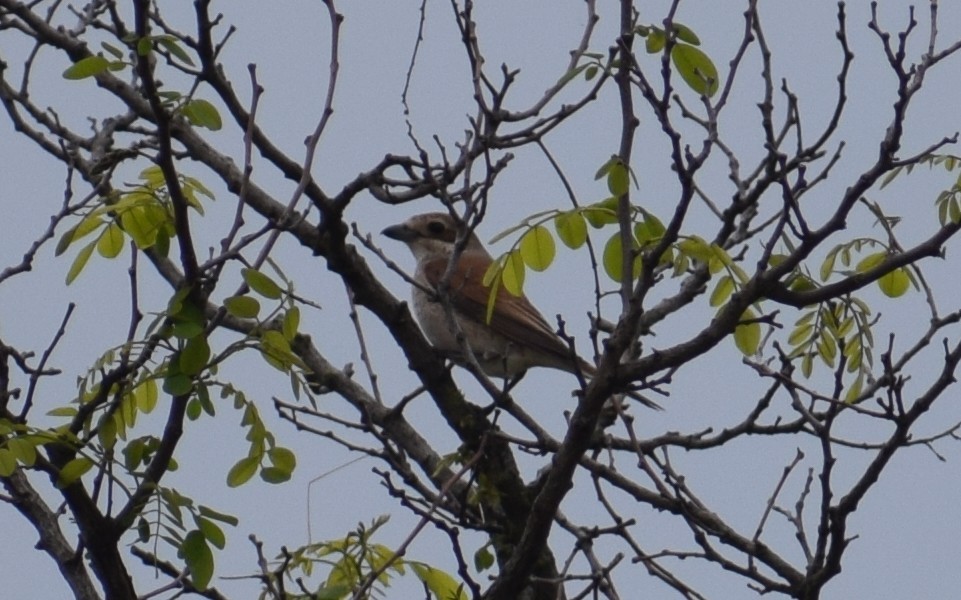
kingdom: Animalia
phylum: Chordata
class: Aves
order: Passeriformes
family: Laniidae
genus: Lanius
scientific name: Lanius collurio
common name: Red-backed shrike
